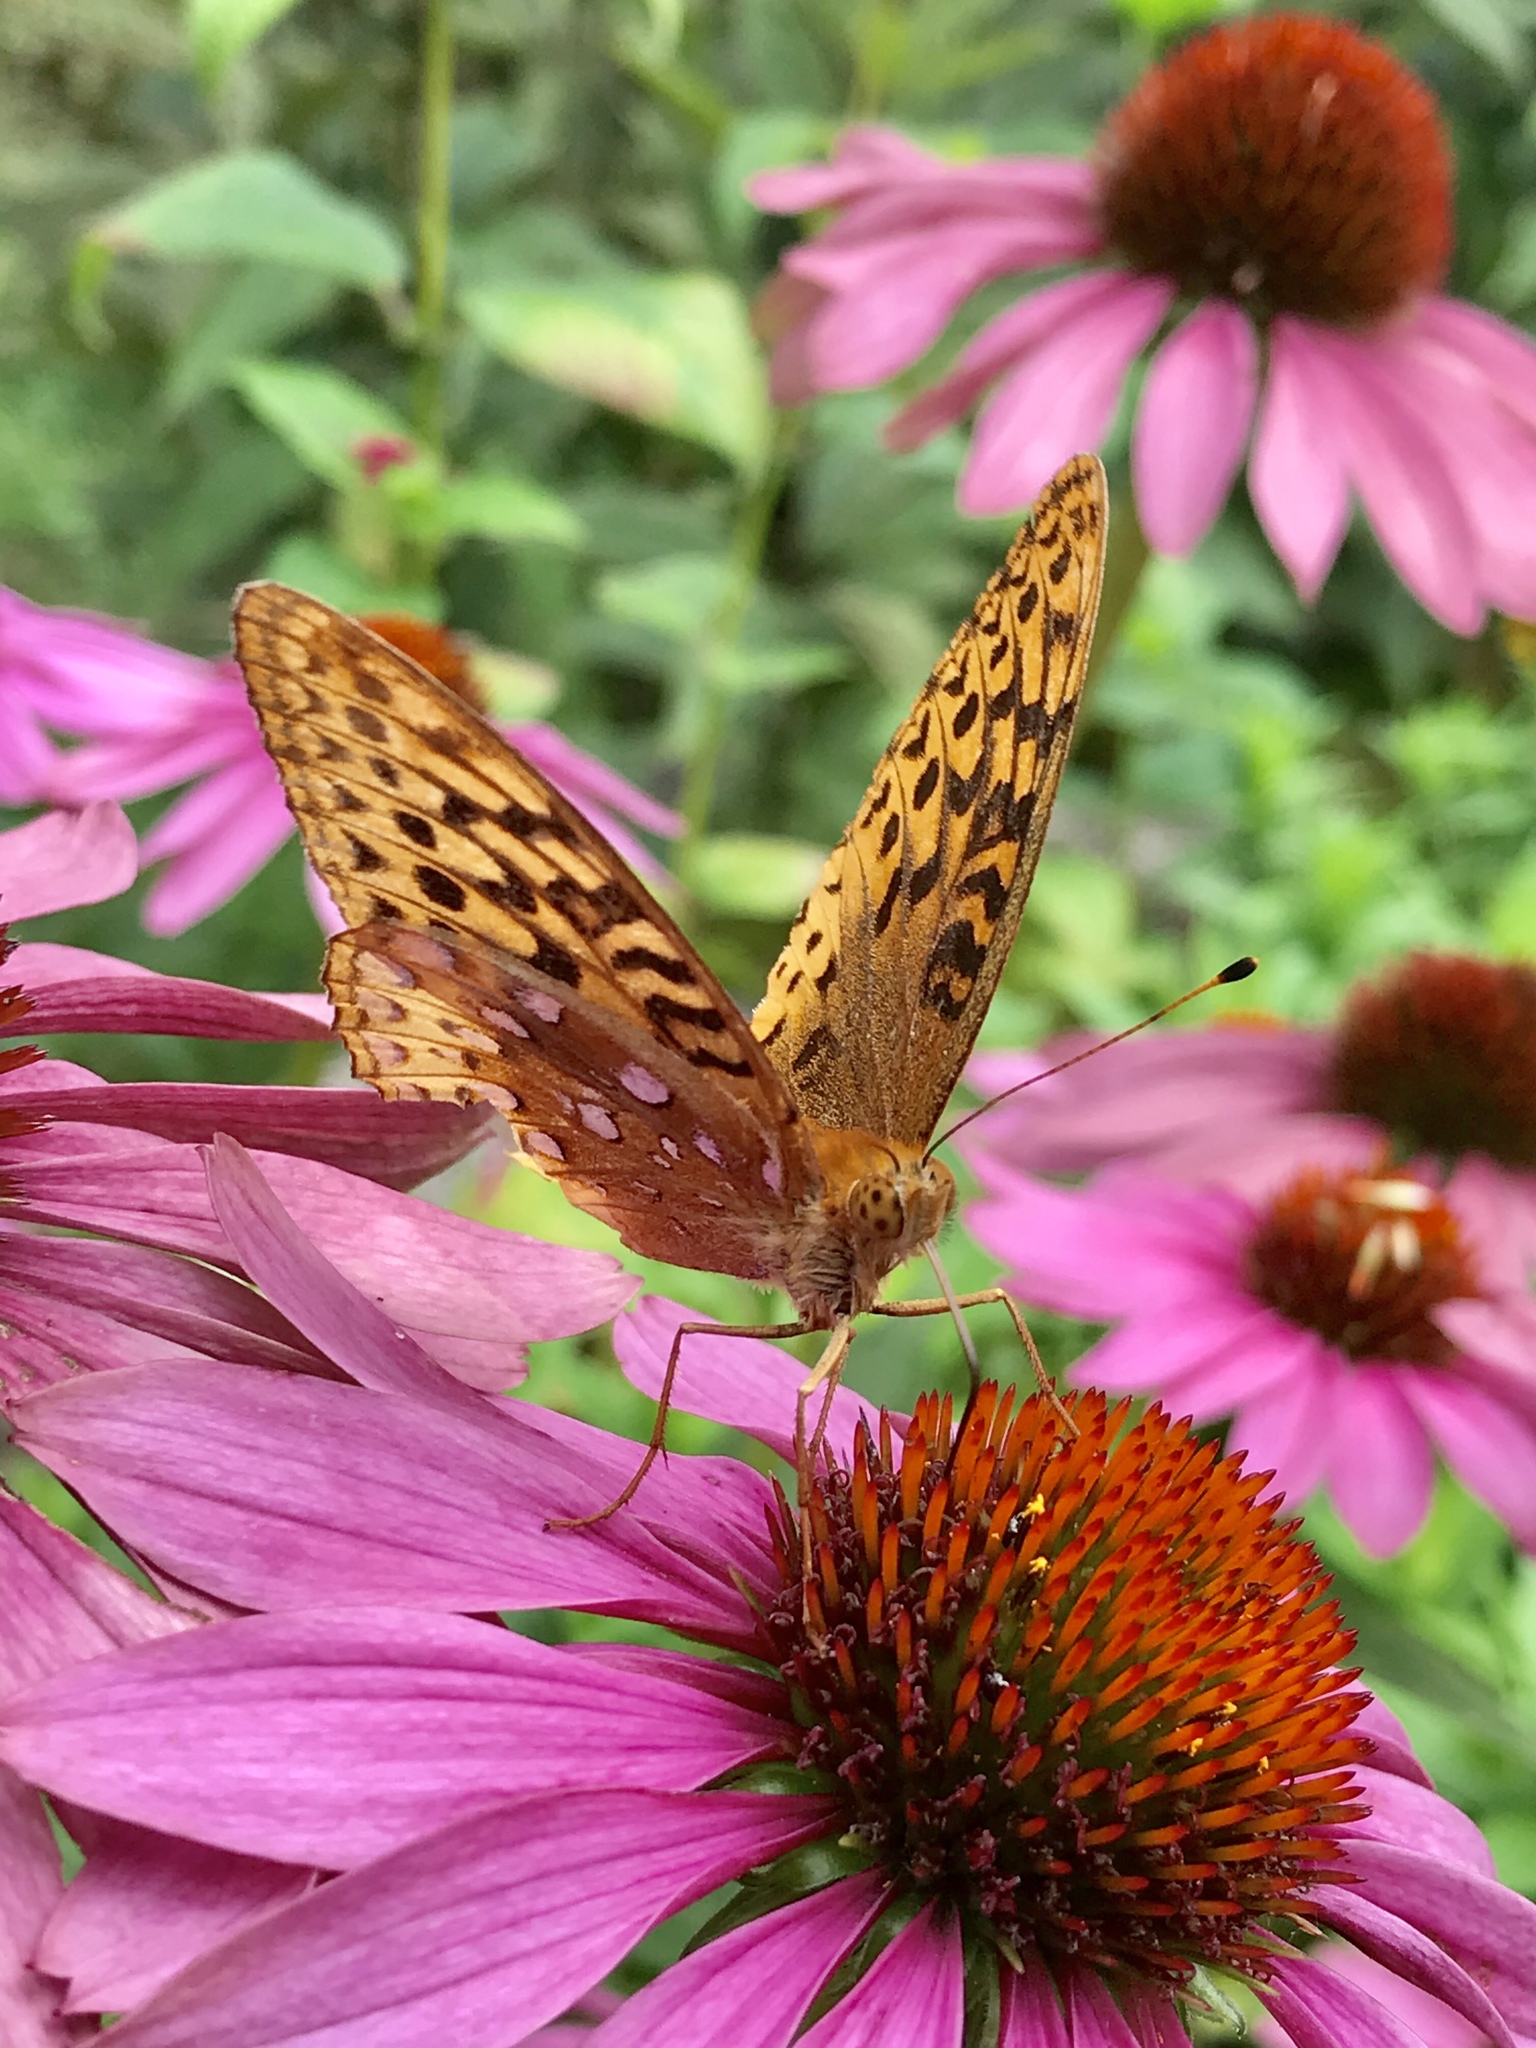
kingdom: Animalia
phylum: Arthropoda
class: Insecta
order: Lepidoptera
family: Nymphalidae
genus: Speyeria
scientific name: Speyeria cybele
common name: Great spangled fritillary
